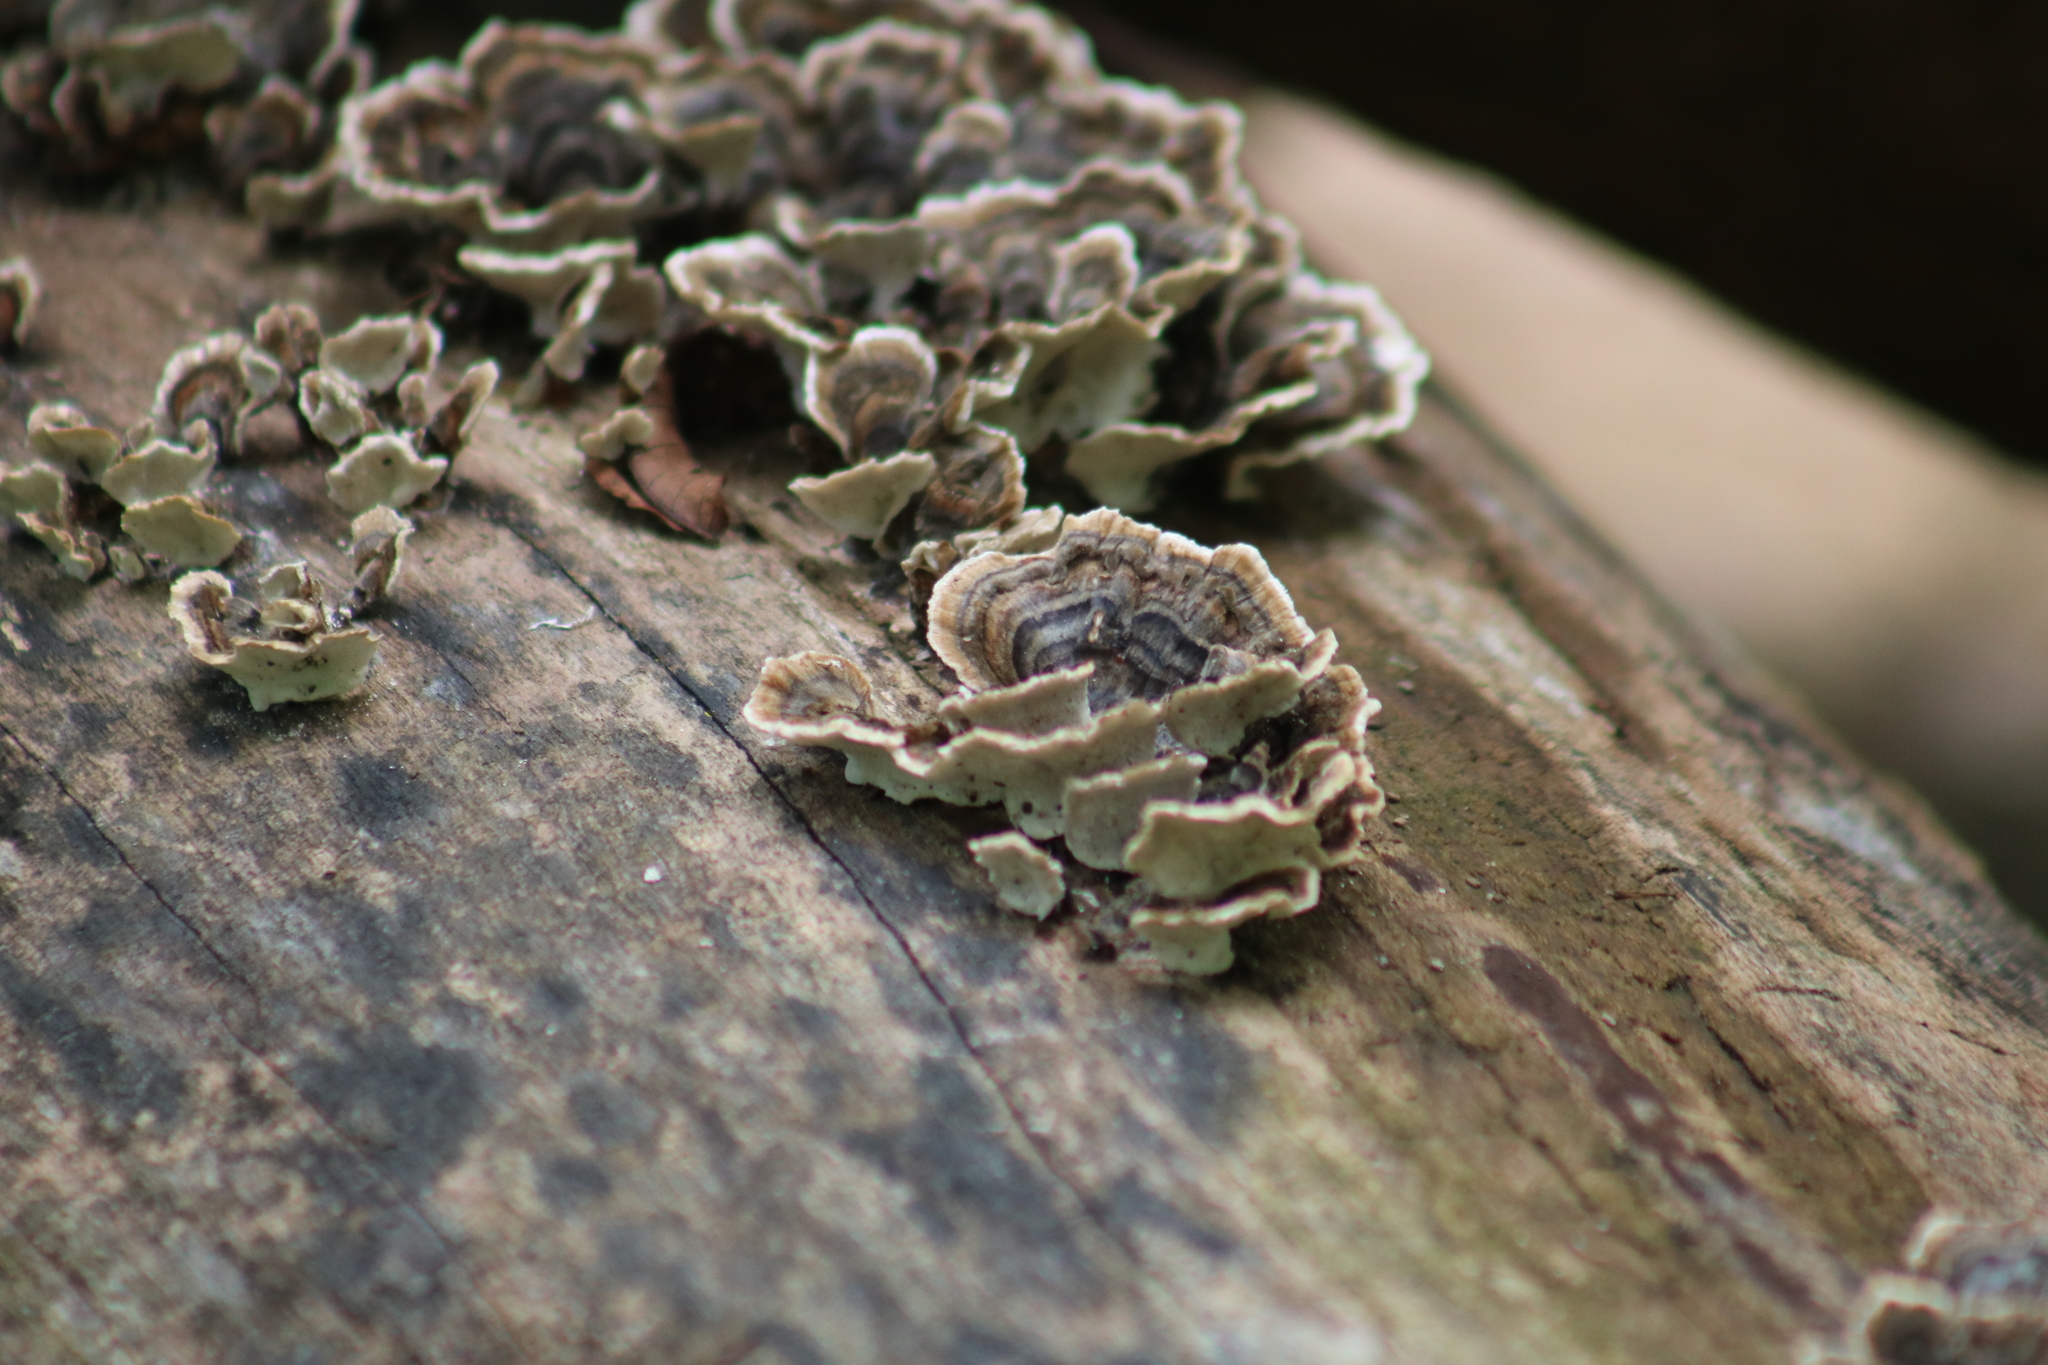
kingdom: Fungi
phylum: Basidiomycota
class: Agaricomycetes
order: Polyporales
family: Polyporaceae
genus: Trametes
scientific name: Trametes versicolor
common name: Turkeytail
